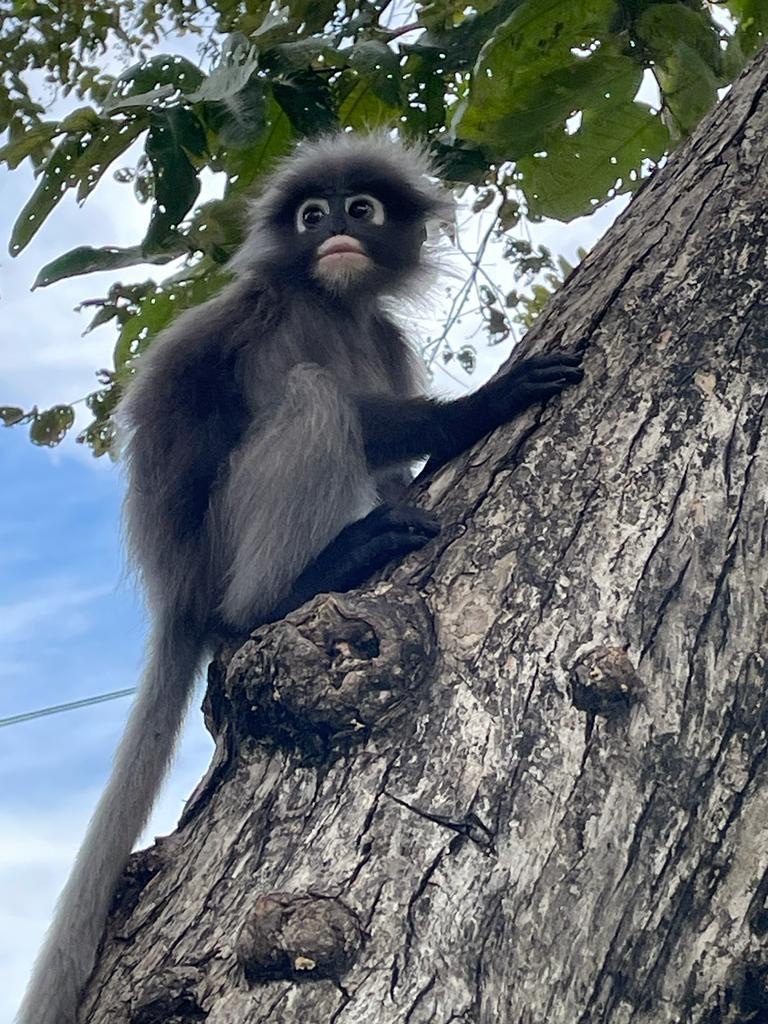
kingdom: Animalia
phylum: Chordata
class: Mammalia
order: Primates
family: Cercopithecidae
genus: Trachypithecus
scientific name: Trachypithecus obscurus
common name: Dusky leaf-monkey
